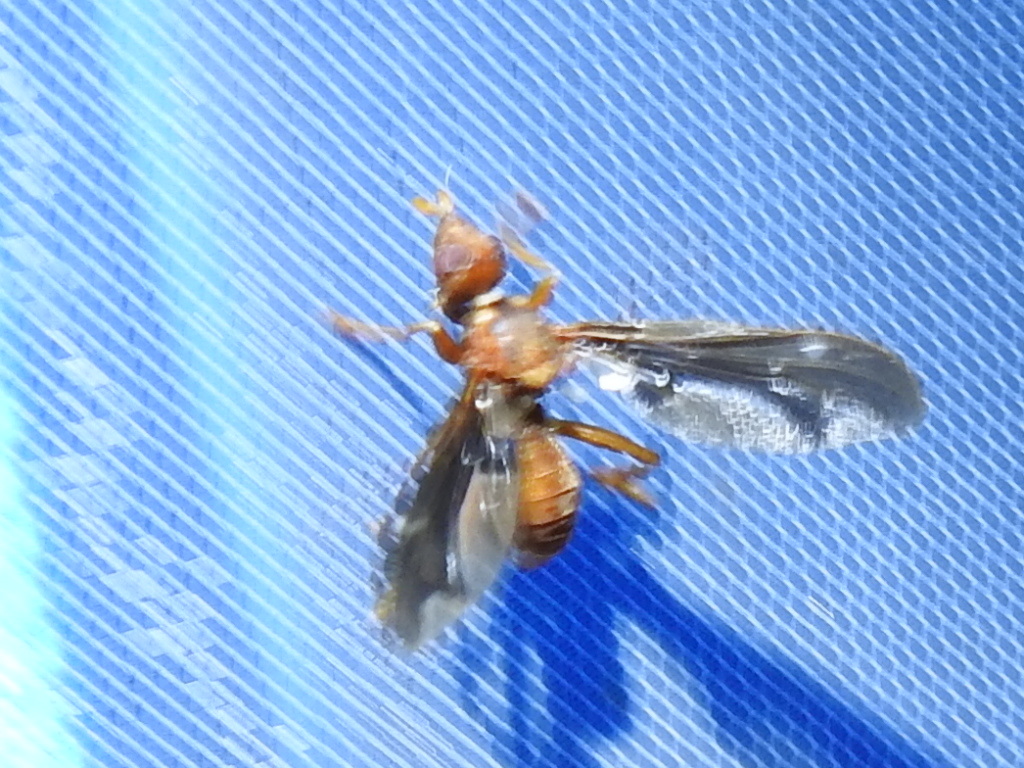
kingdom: Animalia
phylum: Arthropoda
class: Insecta
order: Diptera
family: Pyrgotidae
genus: Pyrgota
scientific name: Pyrgota undata
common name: Waved light fly
